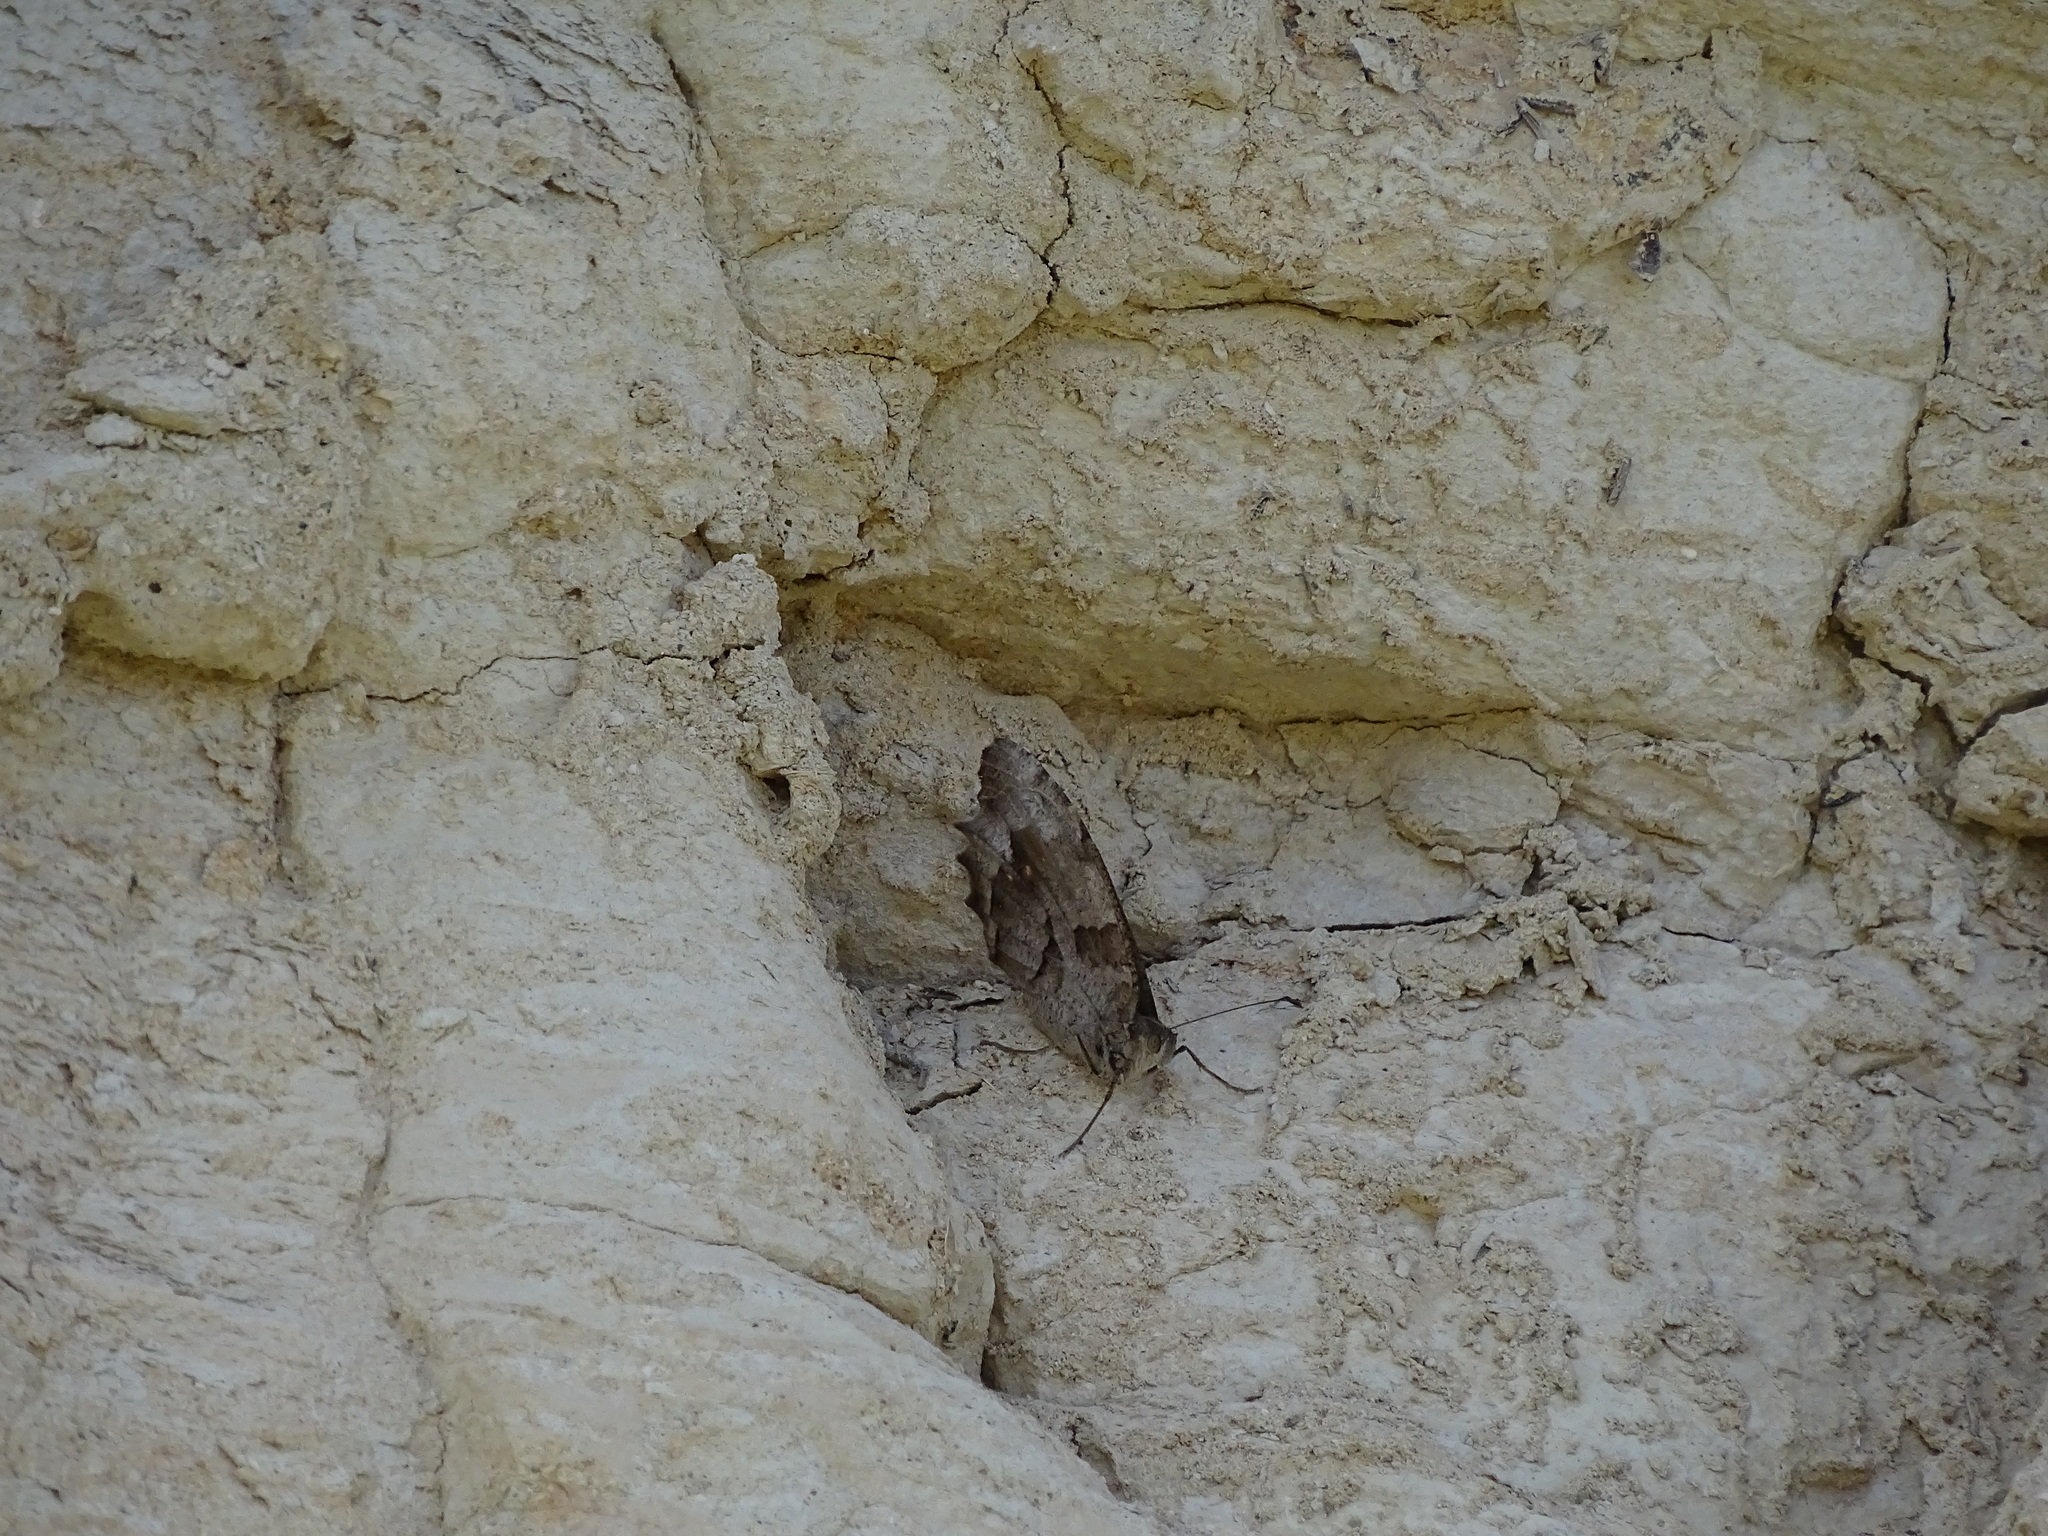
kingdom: Animalia
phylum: Arthropoda
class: Insecta
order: Lepidoptera
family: Nymphalidae
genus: Satyrus
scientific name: Satyrus briseis
